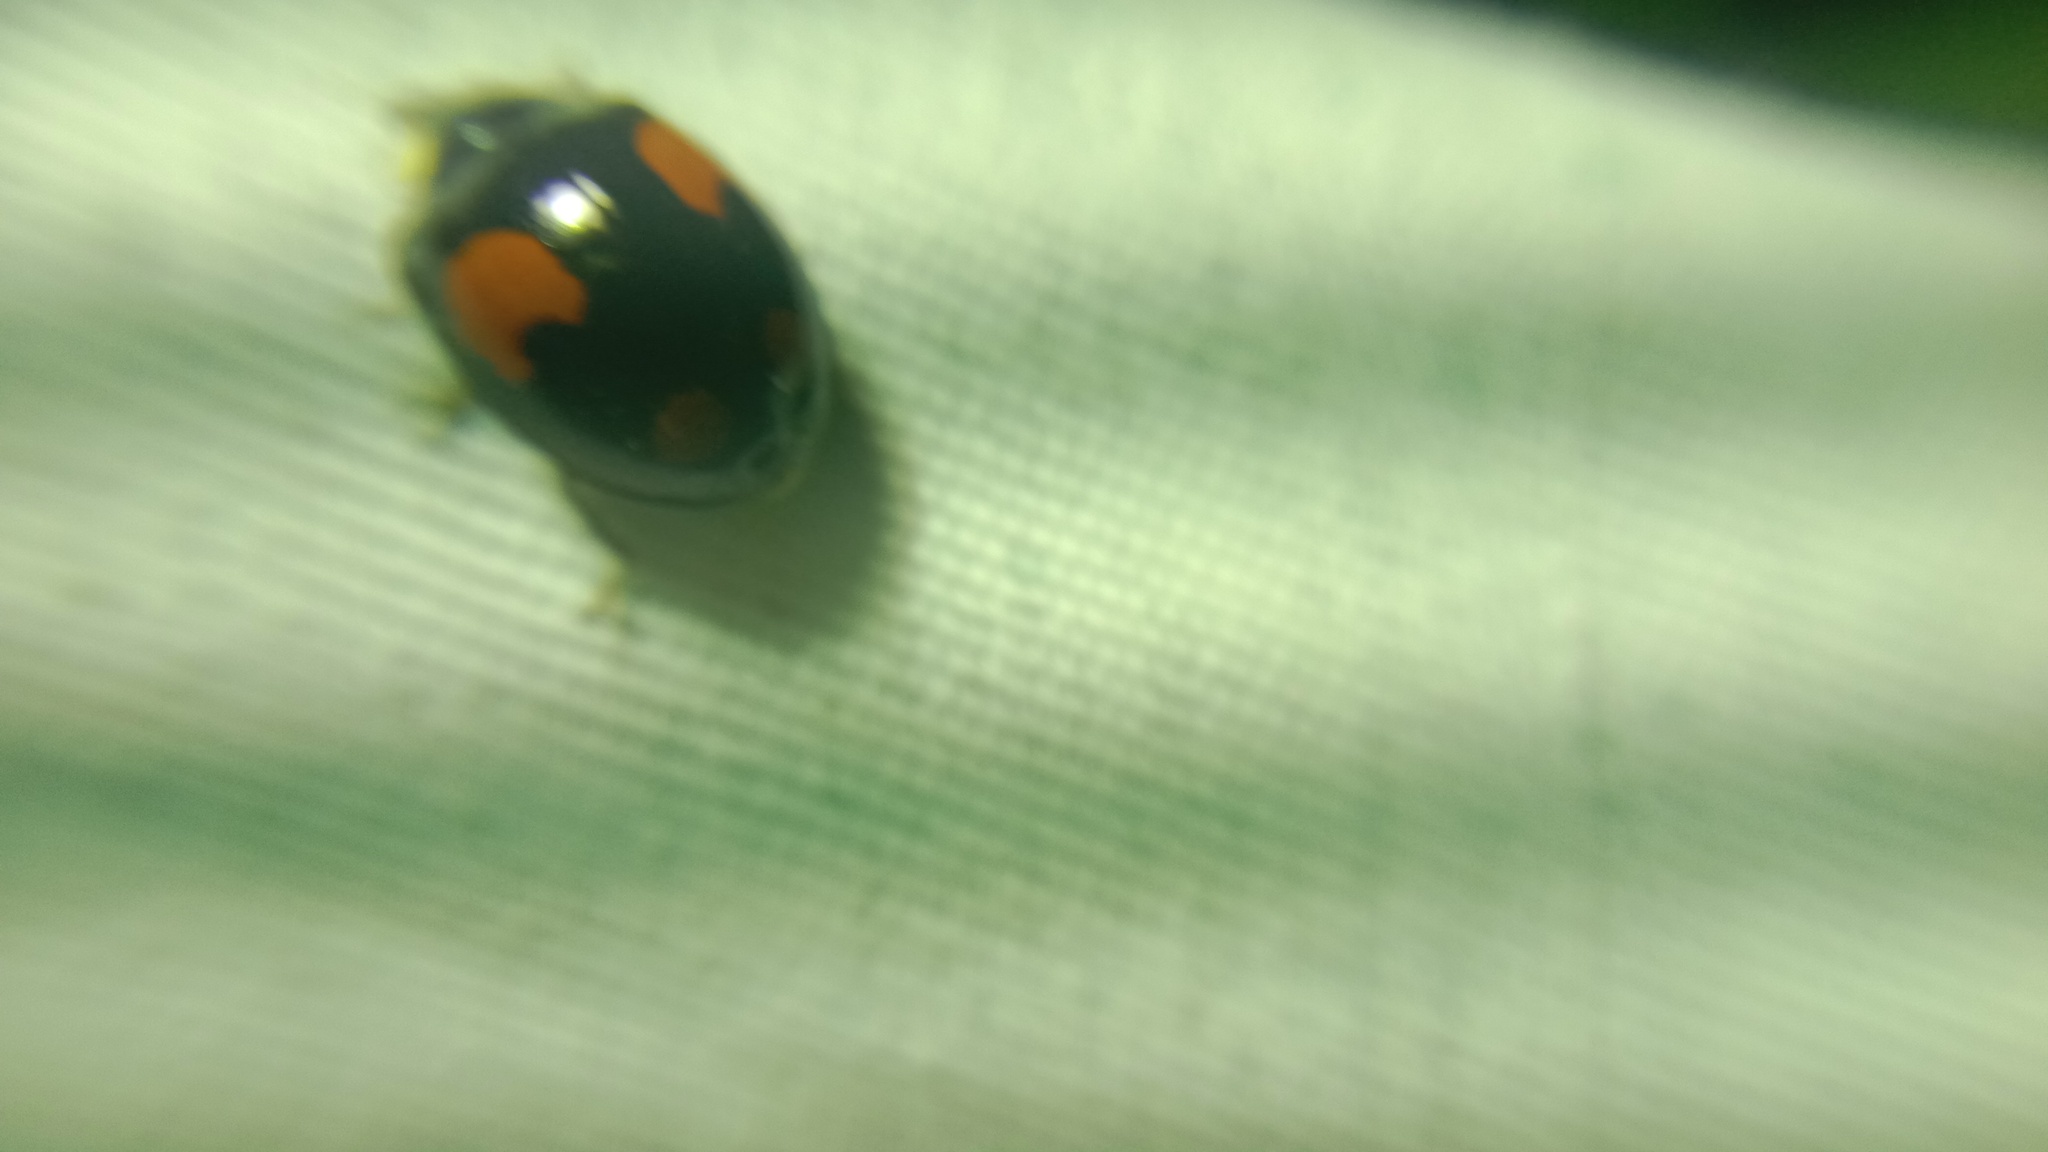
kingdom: Animalia
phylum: Arthropoda
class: Insecta
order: Coleoptera
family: Coccinellidae
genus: Harmonia
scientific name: Harmonia axyridis
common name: Harlequin ladybird
